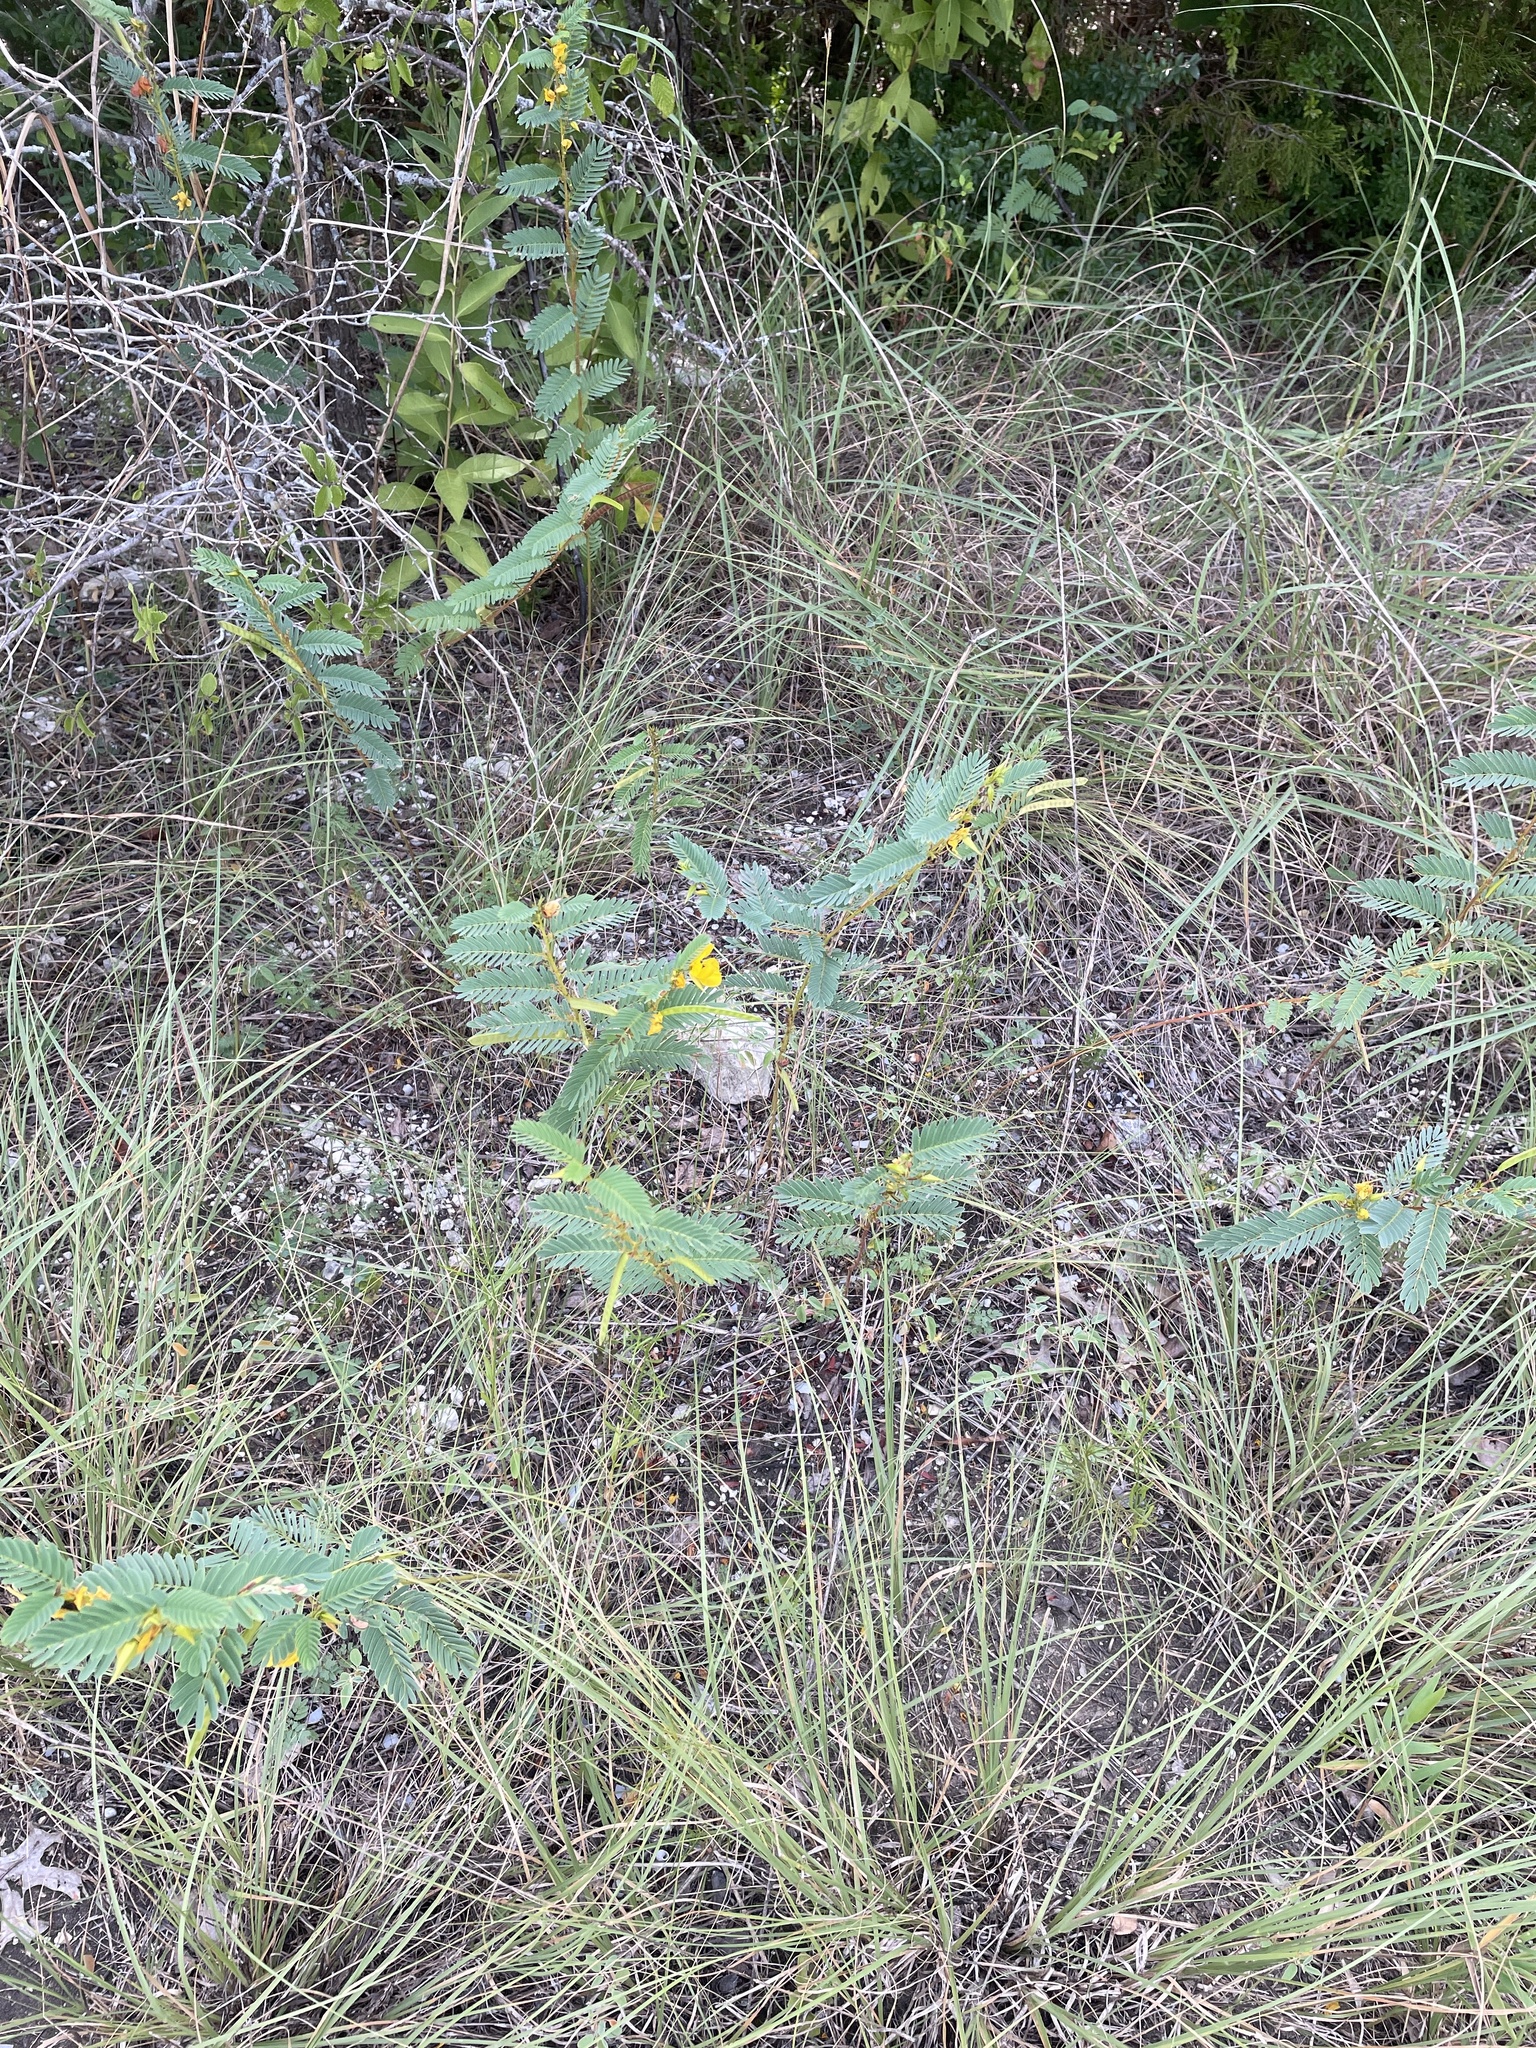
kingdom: Plantae
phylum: Tracheophyta
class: Magnoliopsida
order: Fabales
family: Fabaceae
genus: Chamaecrista
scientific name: Chamaecrista fasciculata
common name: Golden cassia
